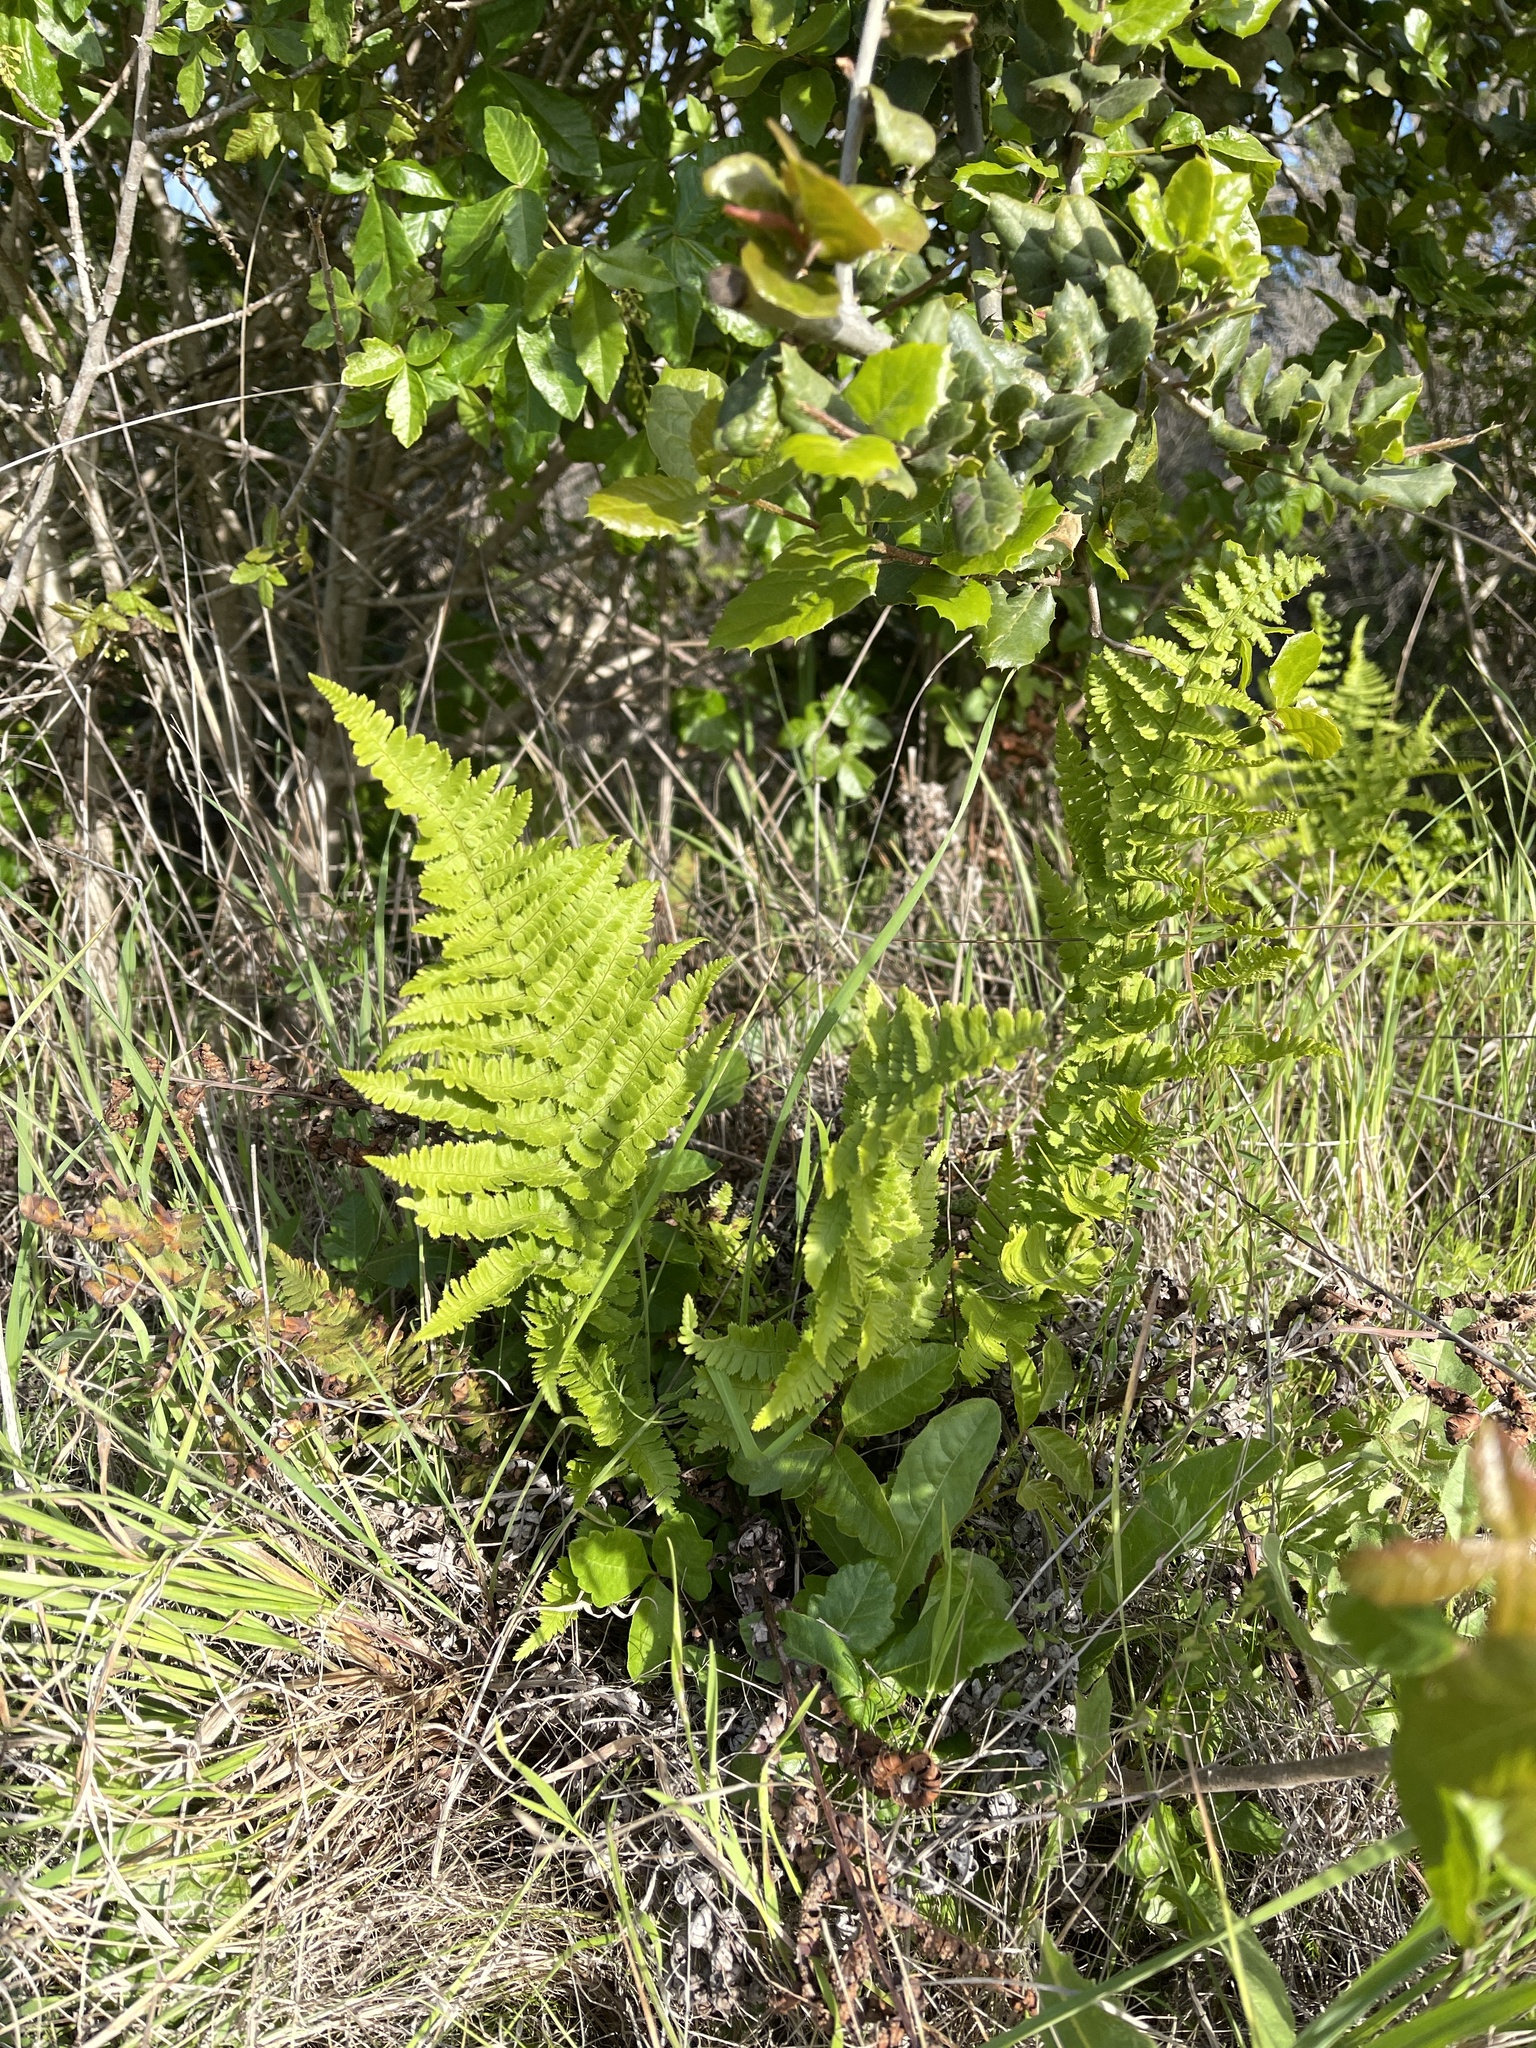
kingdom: Plantae
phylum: Tracheophyta
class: Polypodiopsida
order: Polypodiales
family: Dryopteridaceae
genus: Dryopteris
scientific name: Dryopteris arguta
